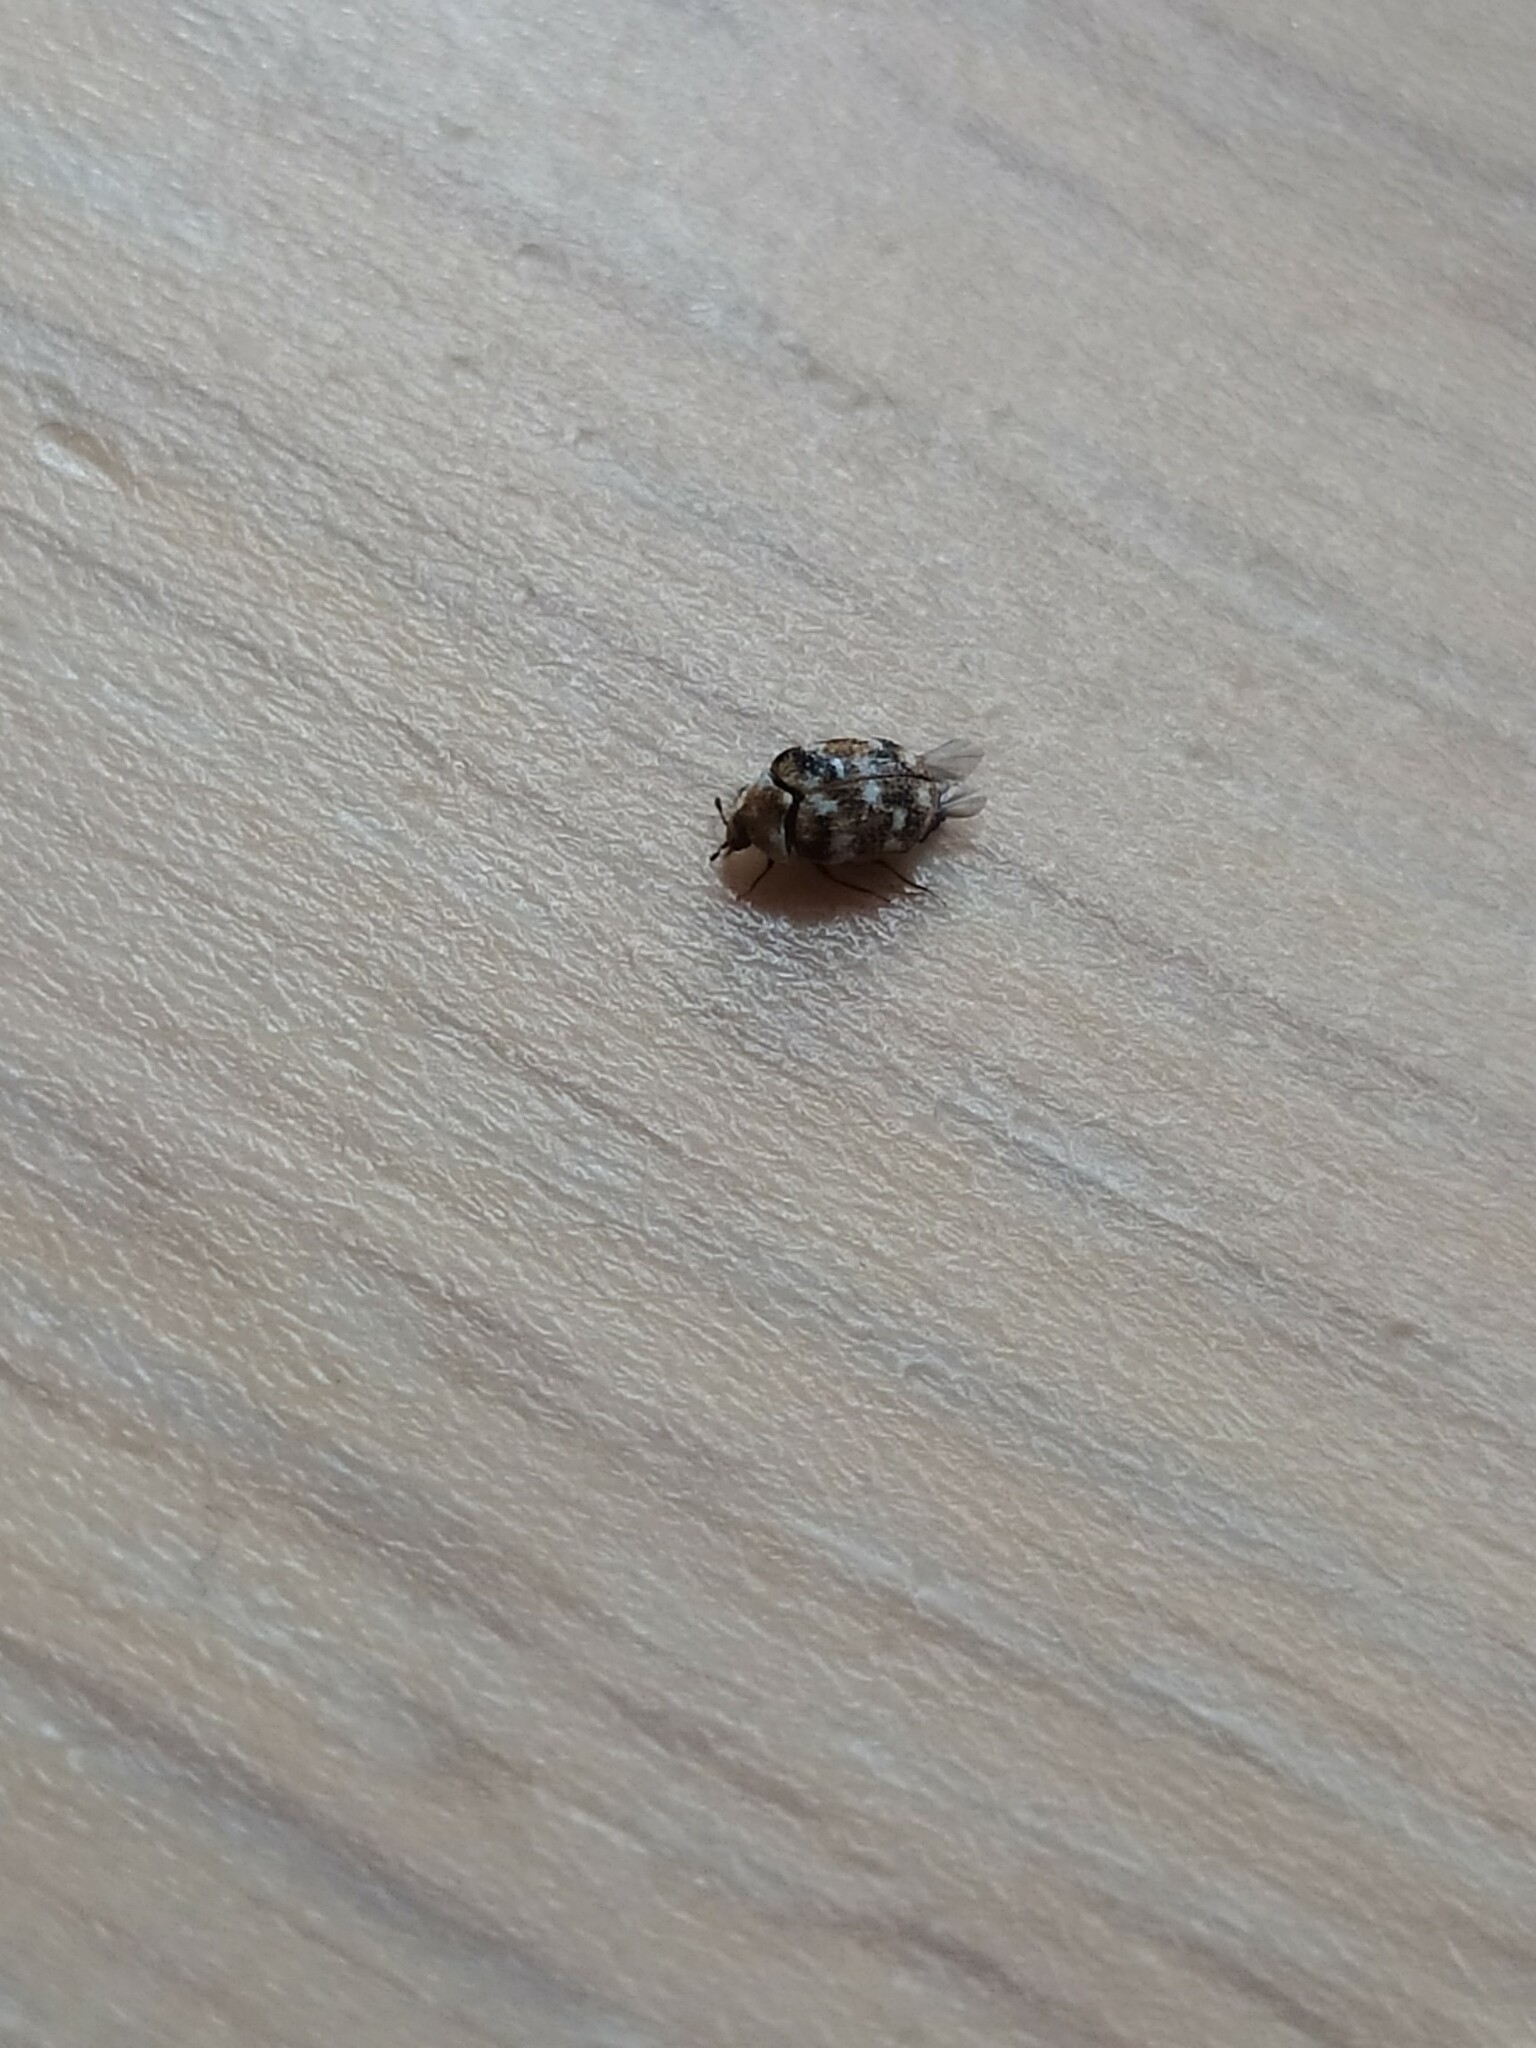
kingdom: Animalia
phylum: Arthropoda
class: Insecta
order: Coleoptera
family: Dermestidae
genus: Anthrenus
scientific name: Anthrenus verbasci
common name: Varied carpet beetle
